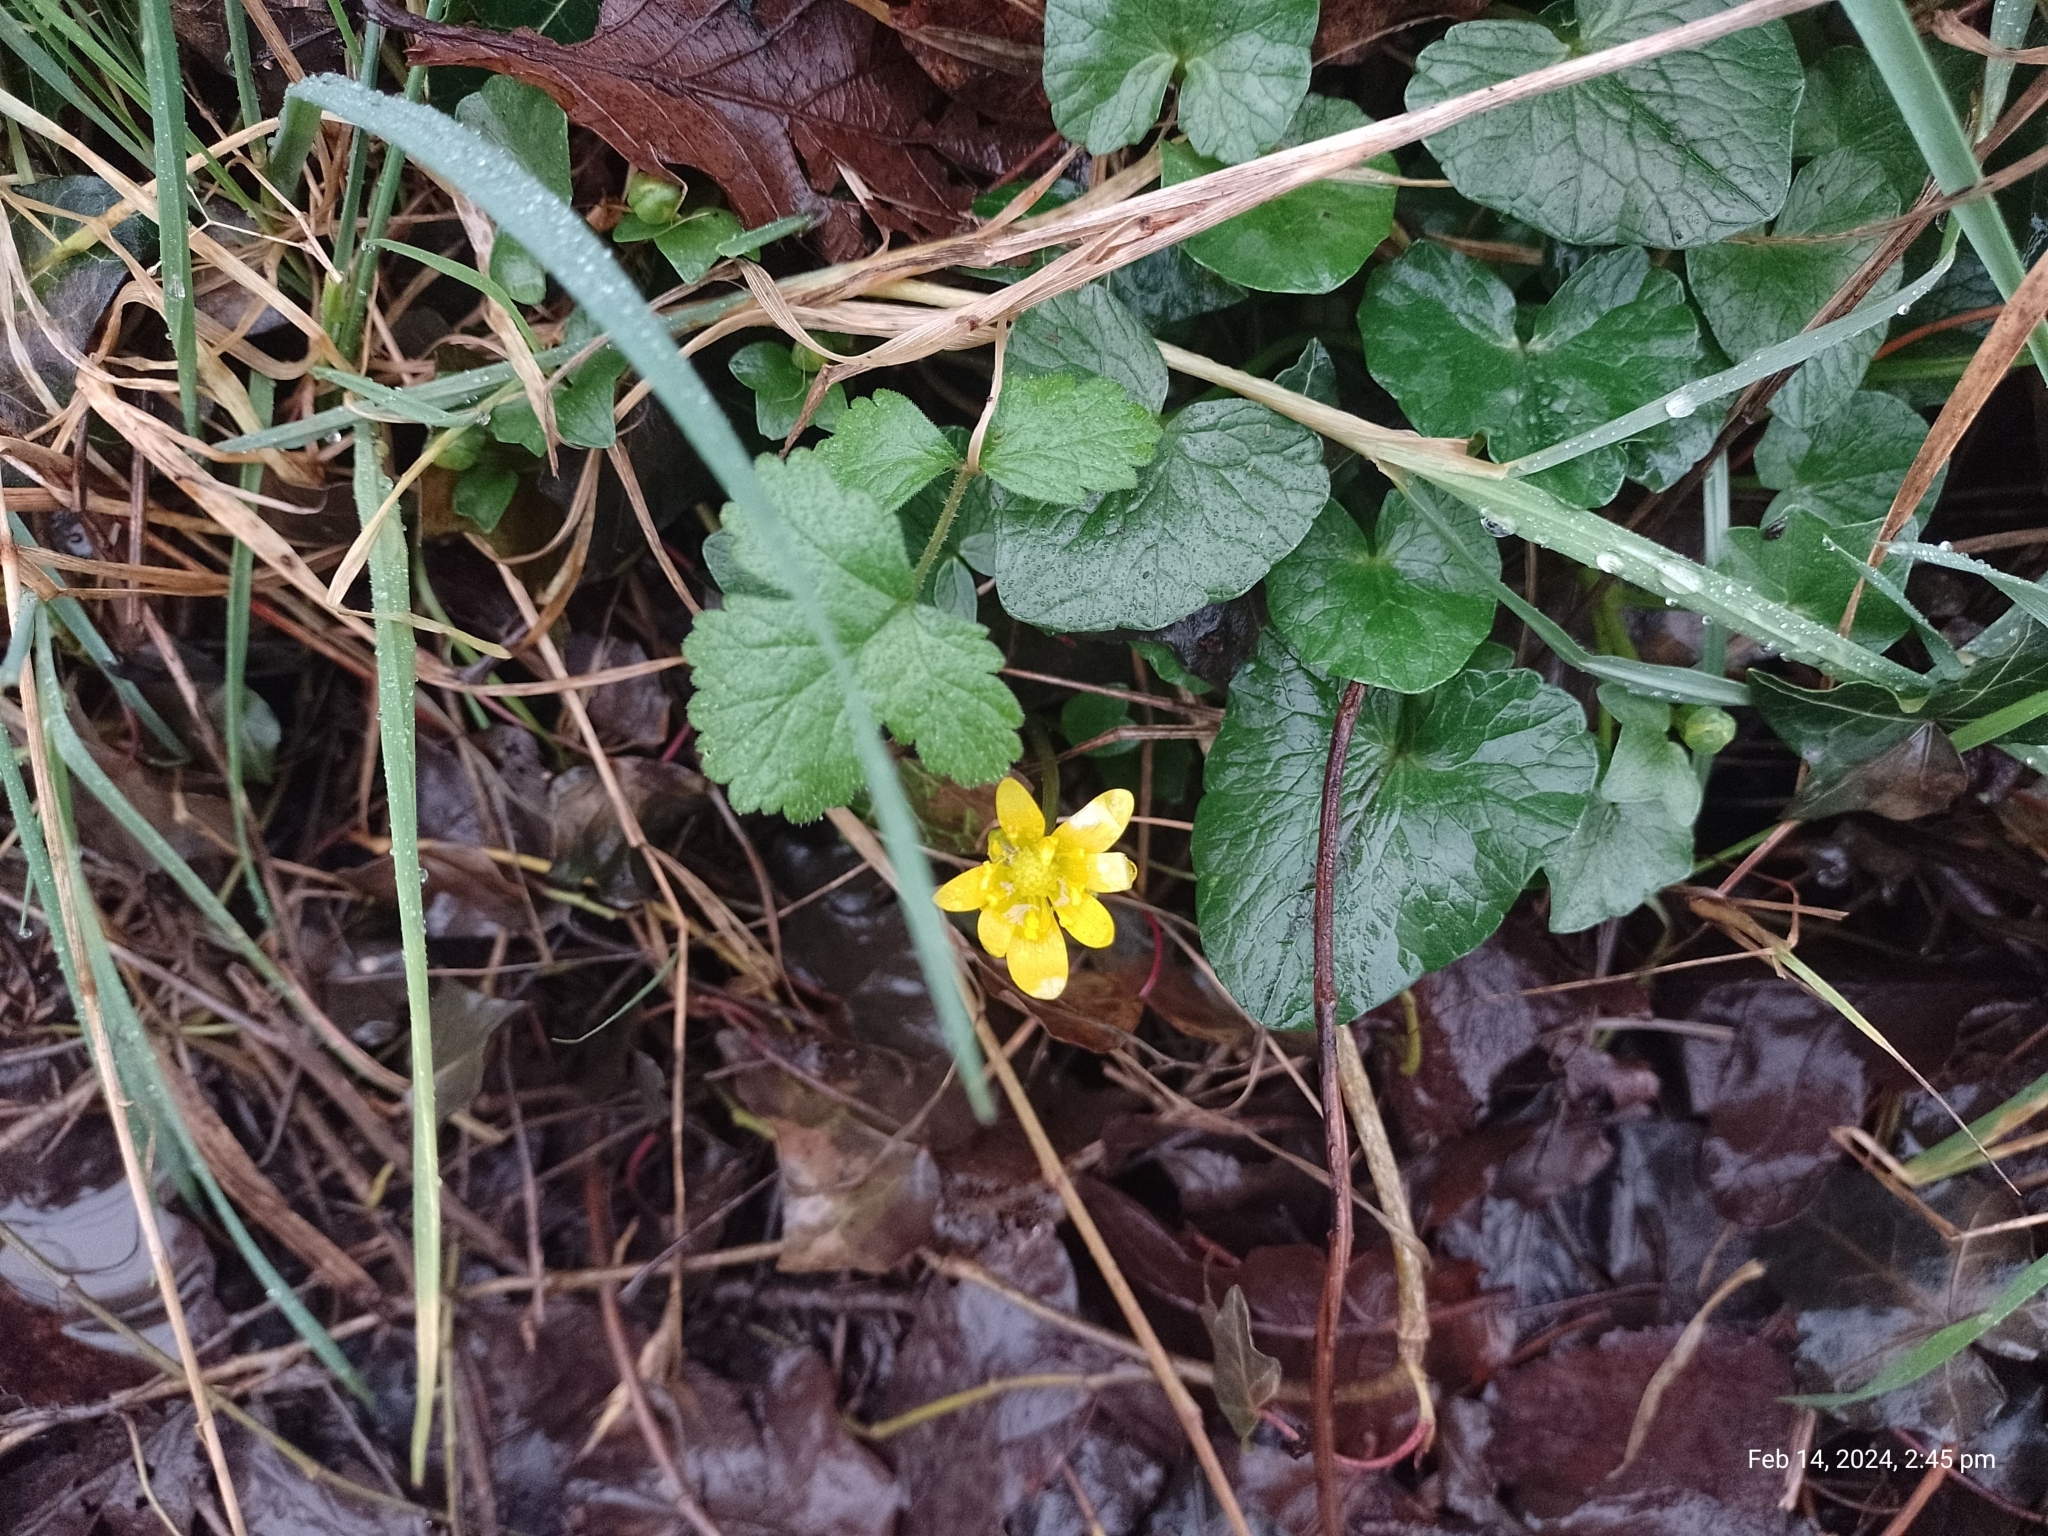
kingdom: Plantae
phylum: Tracheophyta
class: Magnoliopsida
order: Ranunculales
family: Ranunculaceae
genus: Ficaria
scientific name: Ficaria verna
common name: Lesser celandine
